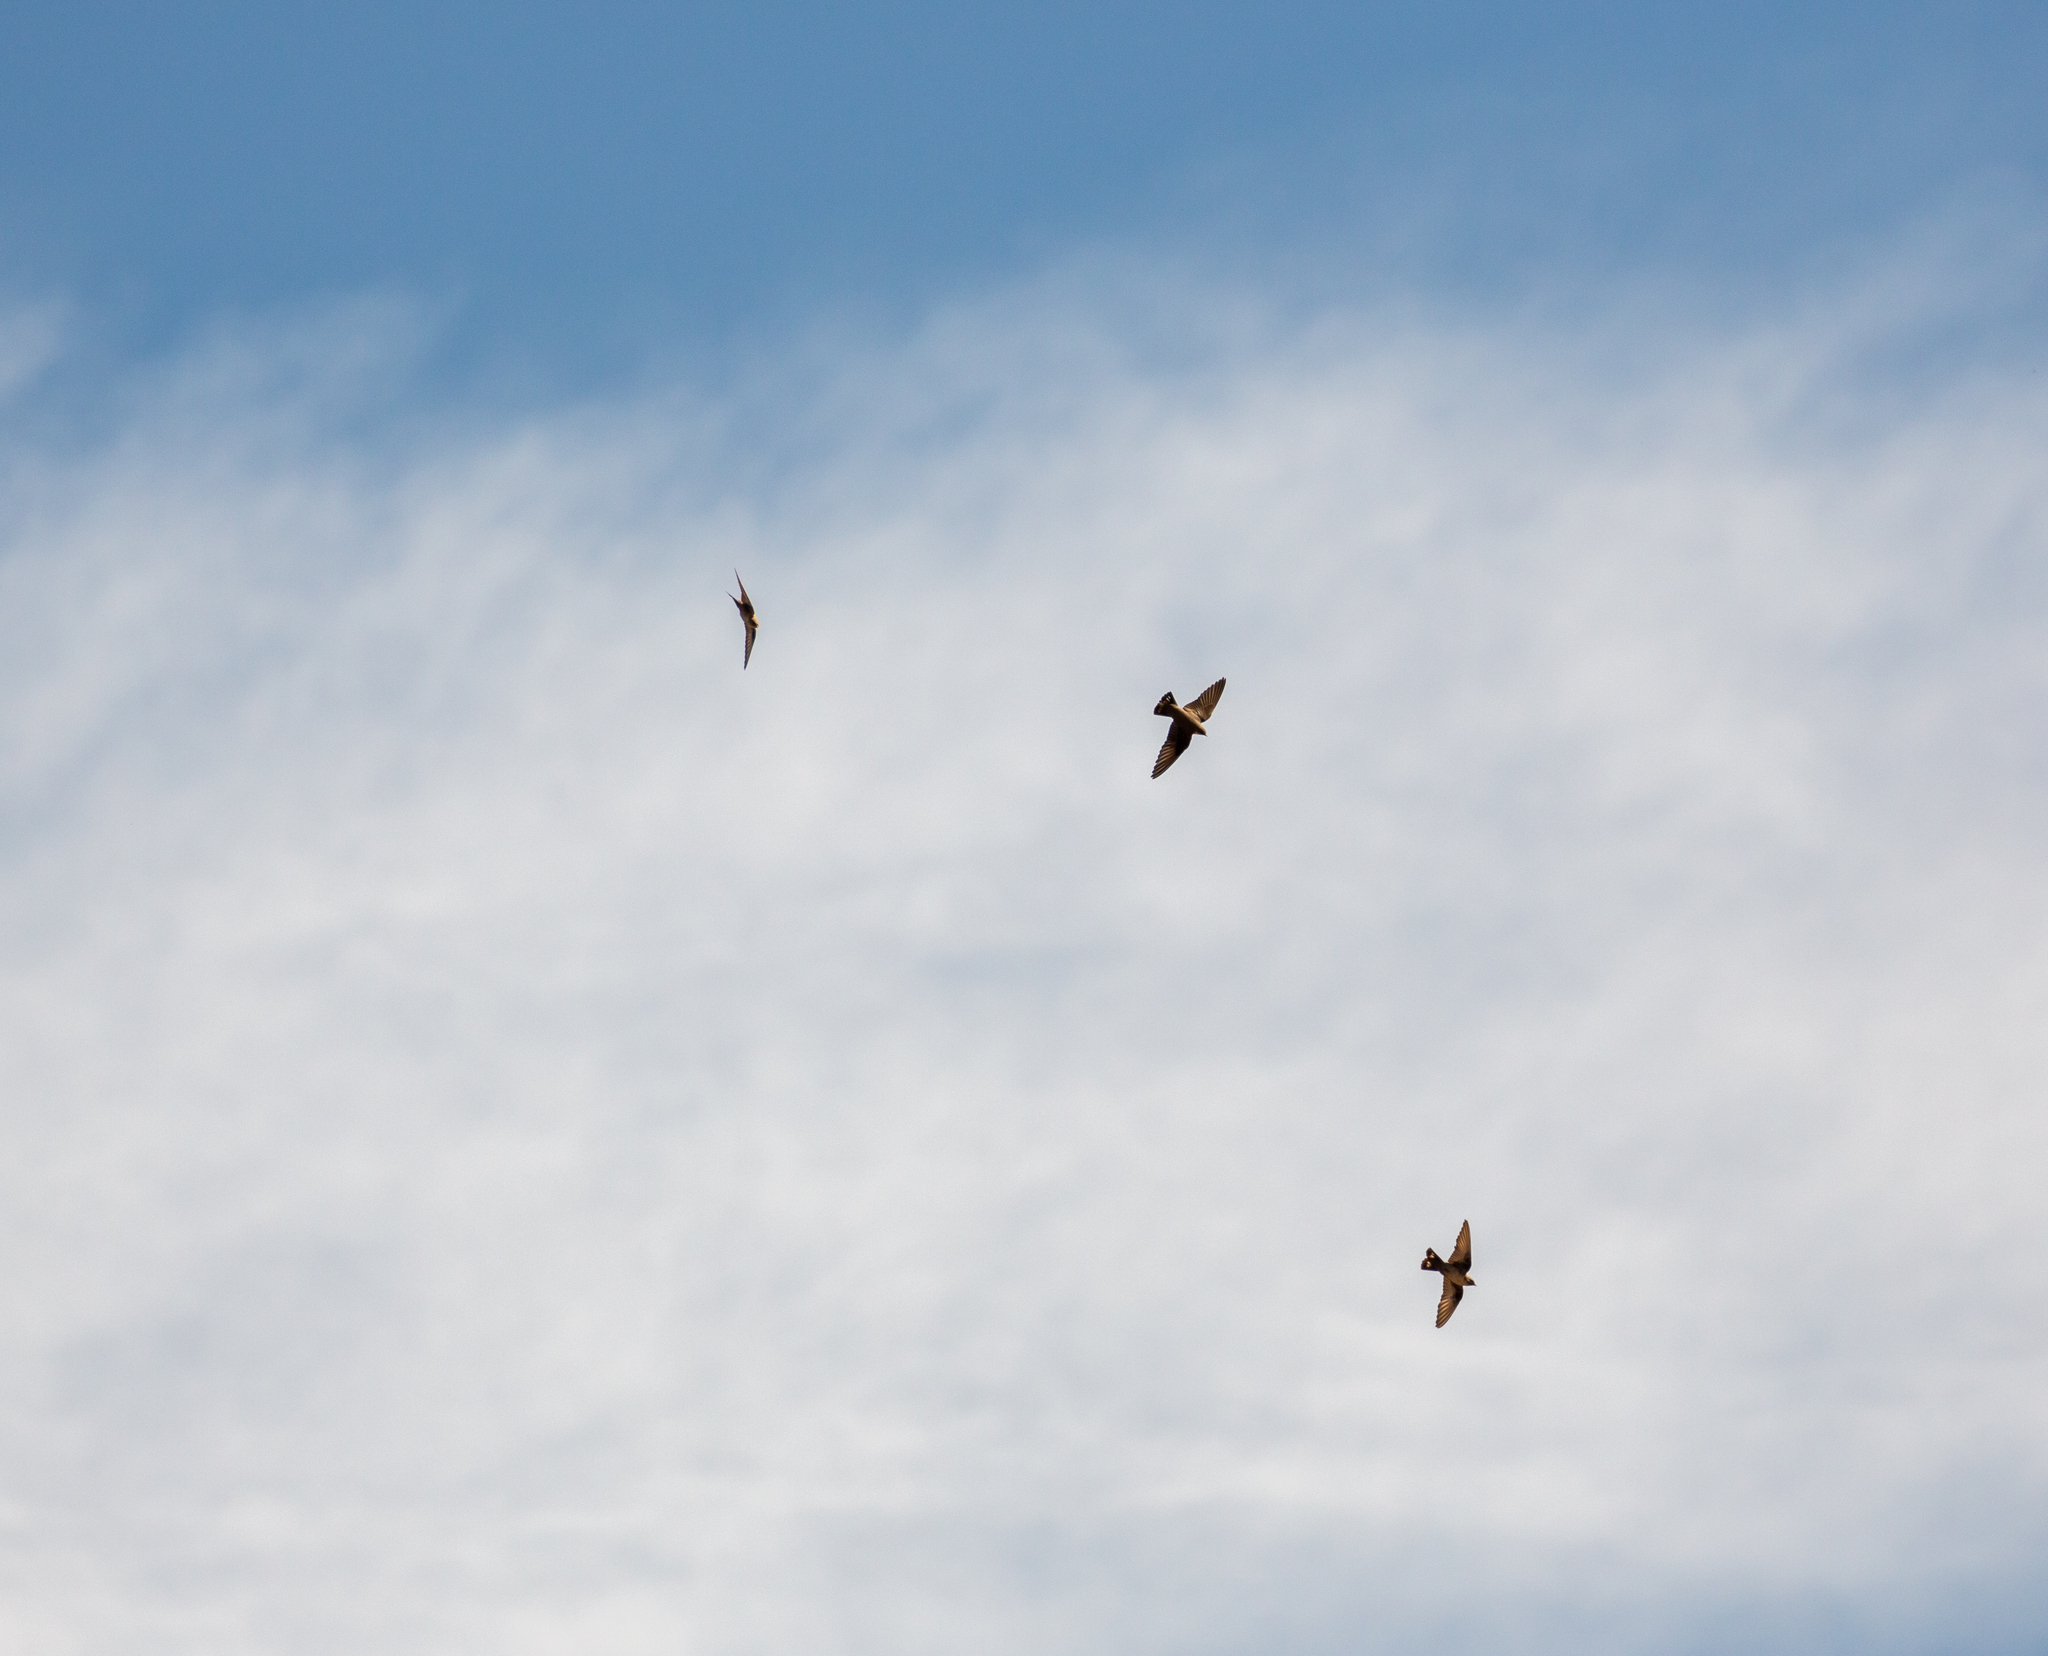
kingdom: Animalia
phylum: Chordata
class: Aves
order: Passeriformes
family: Hirundinidae
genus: Ptyonoprogne
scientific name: Ptyonoprogne rupestris
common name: Eurasian crag martin
